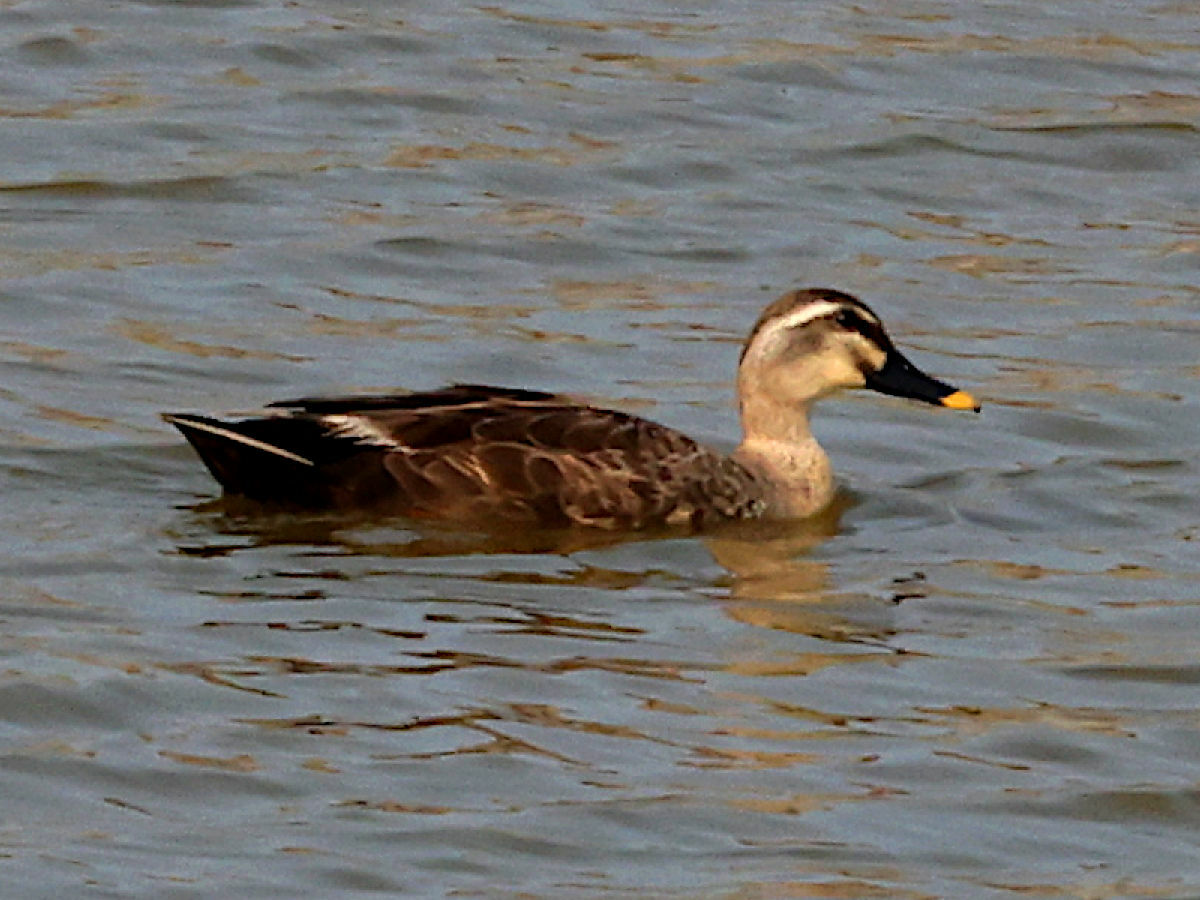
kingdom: Animalia
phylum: Chordata
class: Aves
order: Anseriformes
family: Anatidae
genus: Anas
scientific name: Anas zonorhyncha
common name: Eastern spot-billed duck
